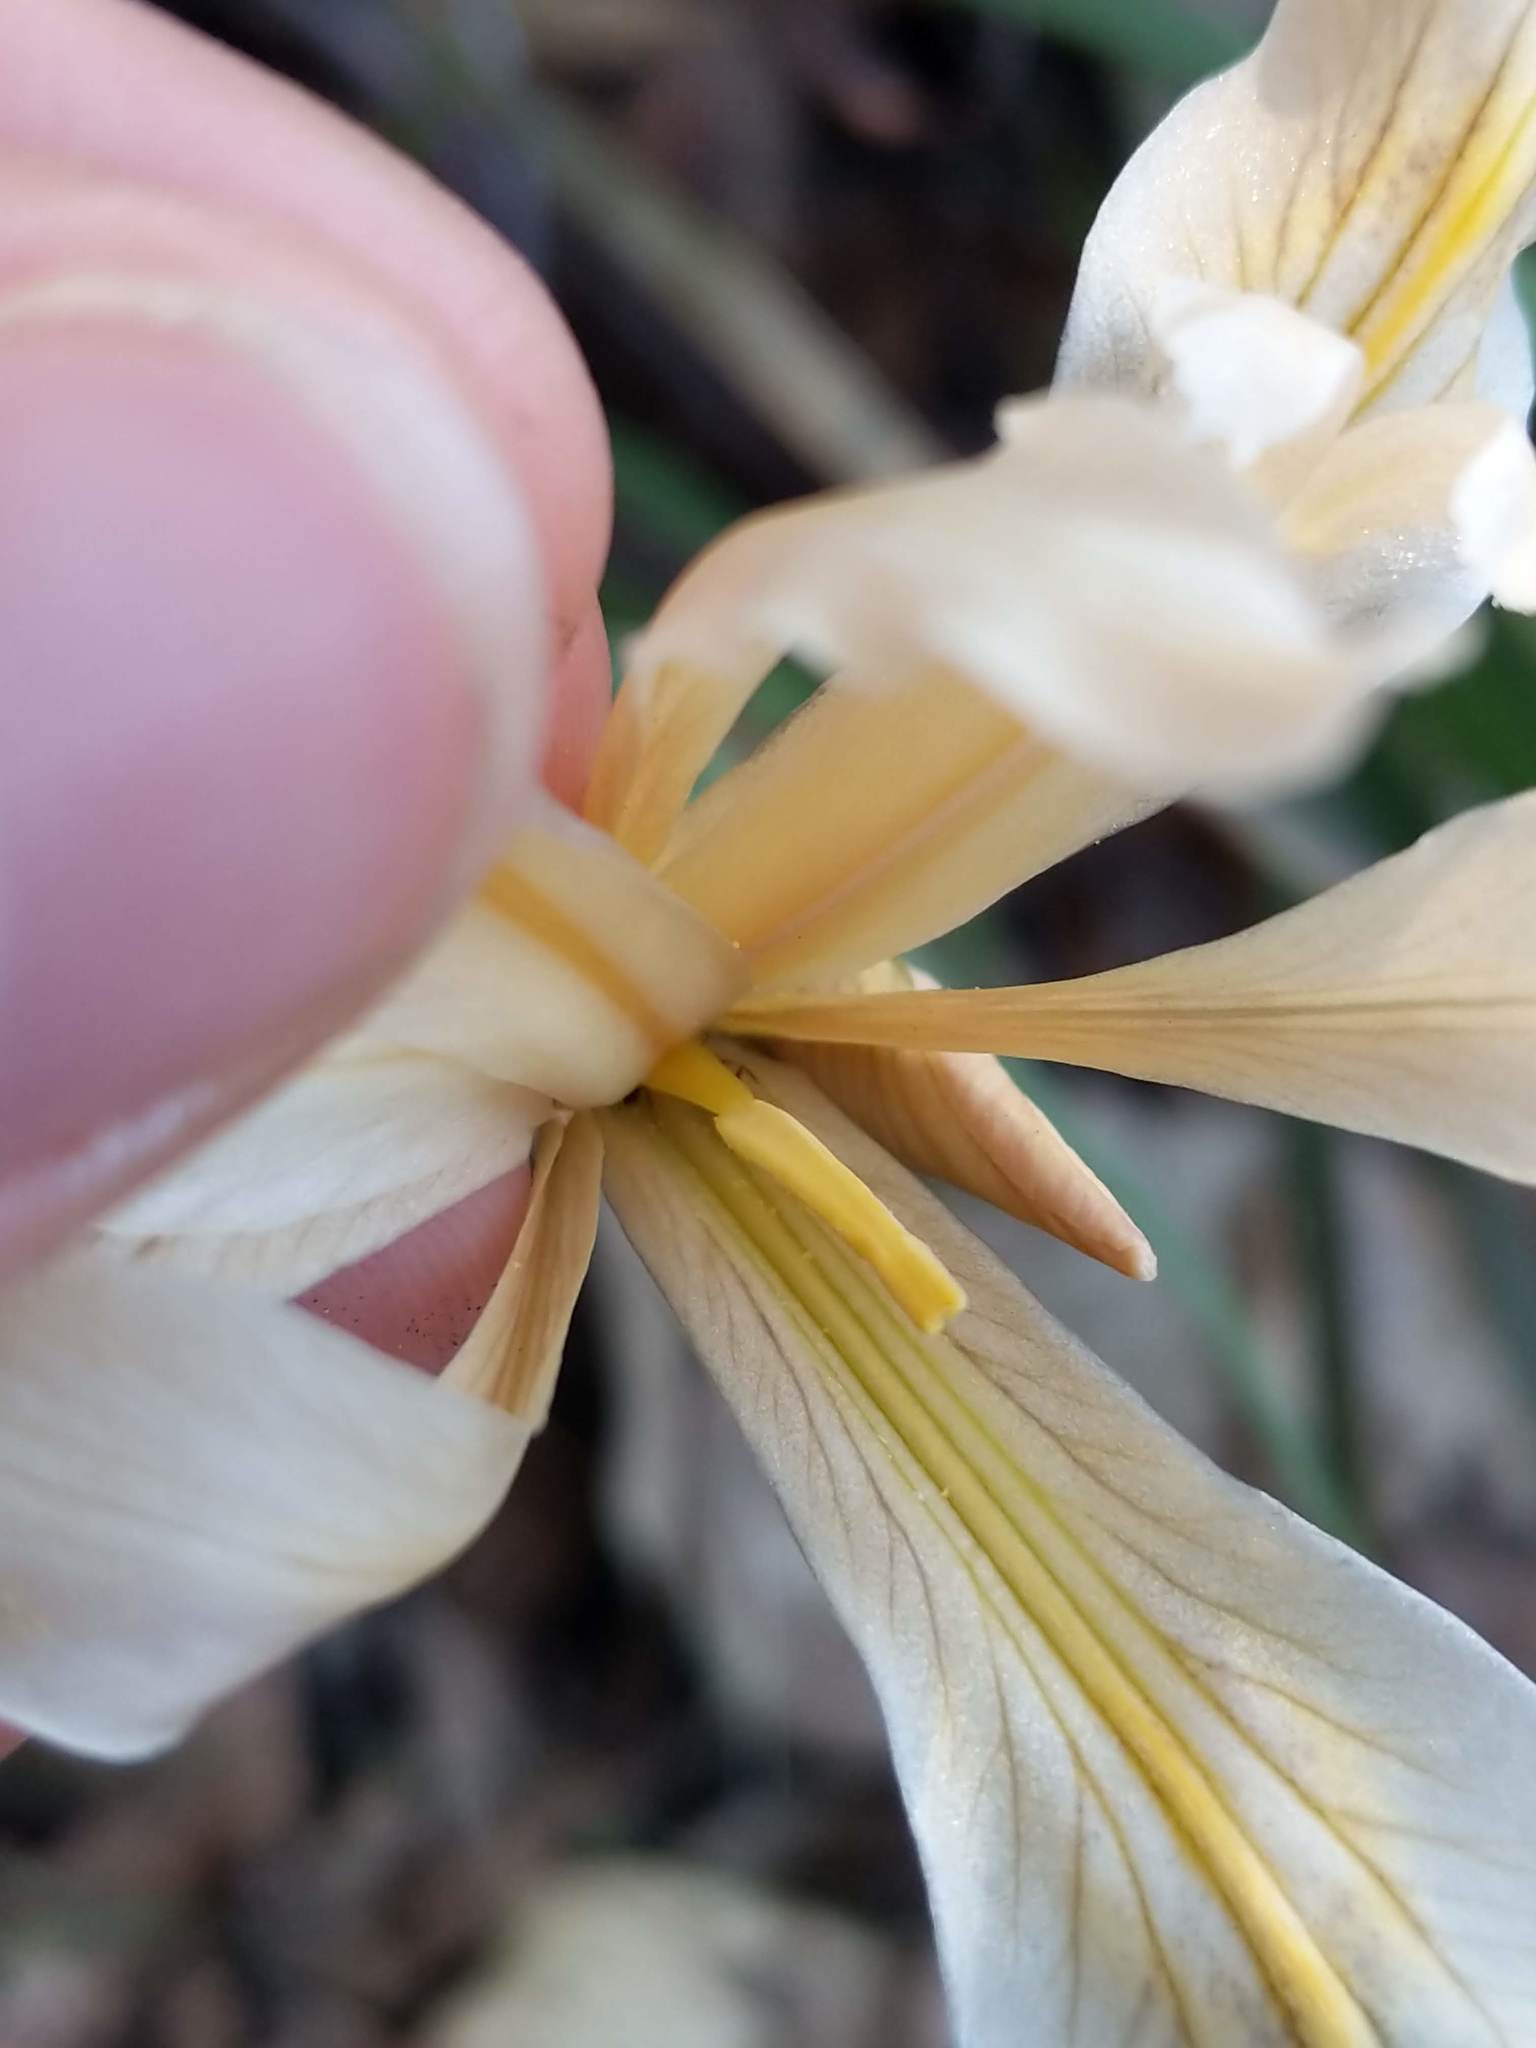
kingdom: Plantae
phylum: Tracheophyta
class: Liliopsida
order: Asparagales
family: Iridaceae
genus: Iris
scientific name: Iris fernaldii
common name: Fernald's iris
